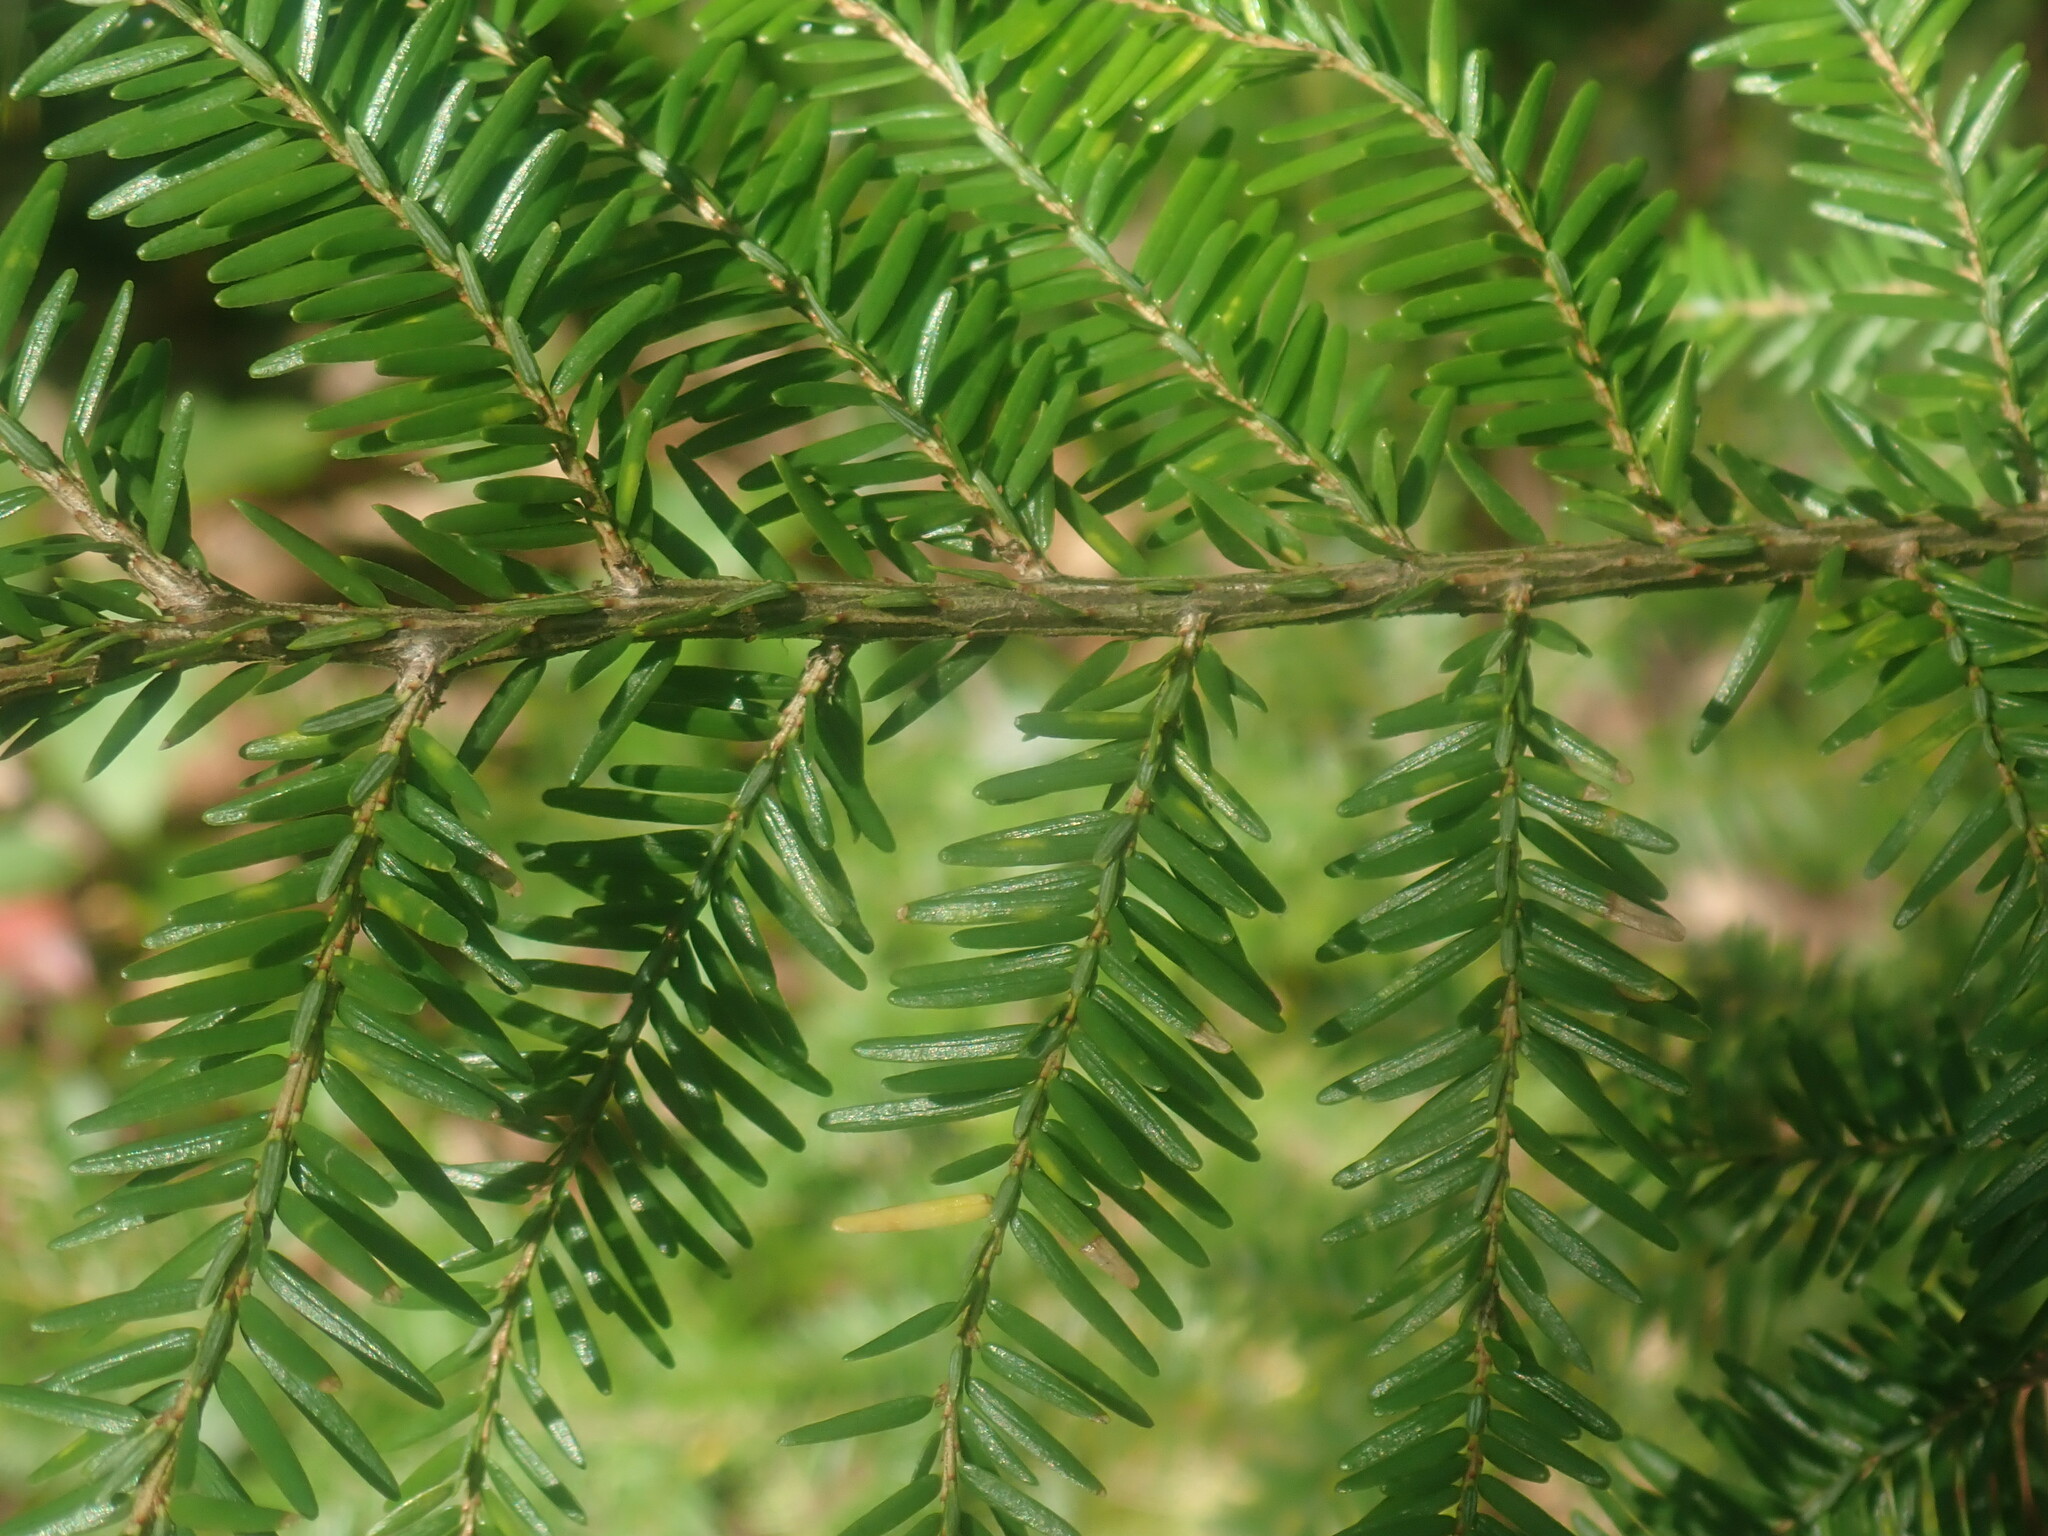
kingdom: Plantae
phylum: Tracheophyta
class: Pinopsida
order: Pinales
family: Pinaceae
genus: Tsuga
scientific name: Tsuga canadensis
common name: Eastern hemlock
